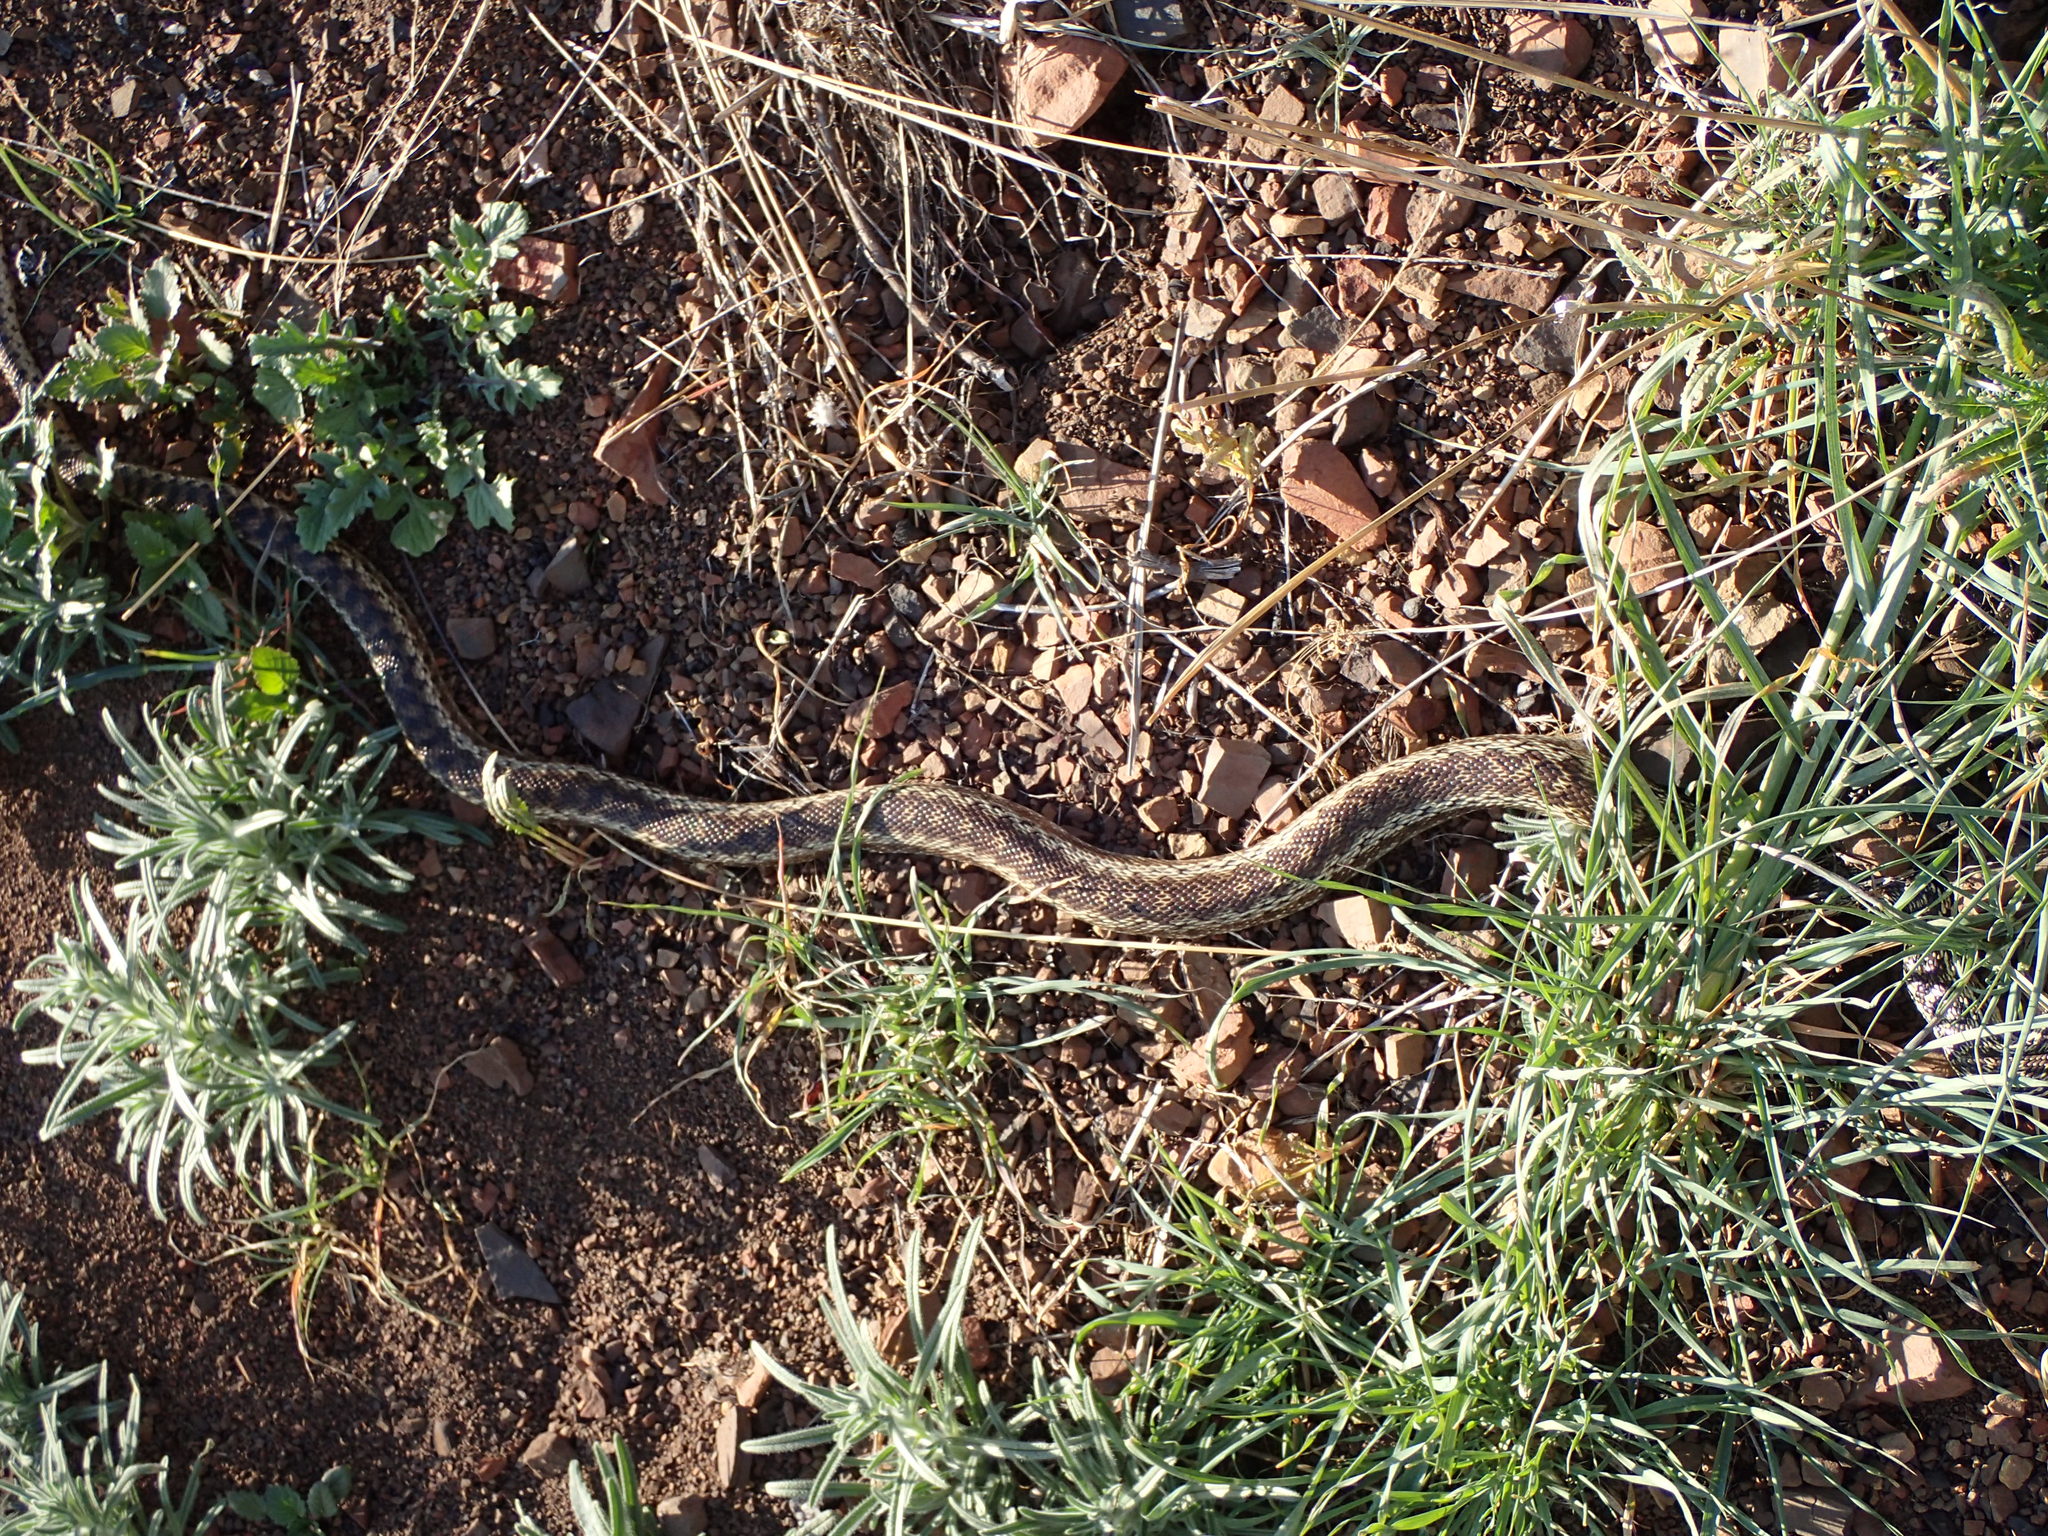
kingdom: Animalia
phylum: Chordata
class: Squamata
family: Colubridae
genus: Pituophis
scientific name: Pituophis catenifer
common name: Gopher snake
